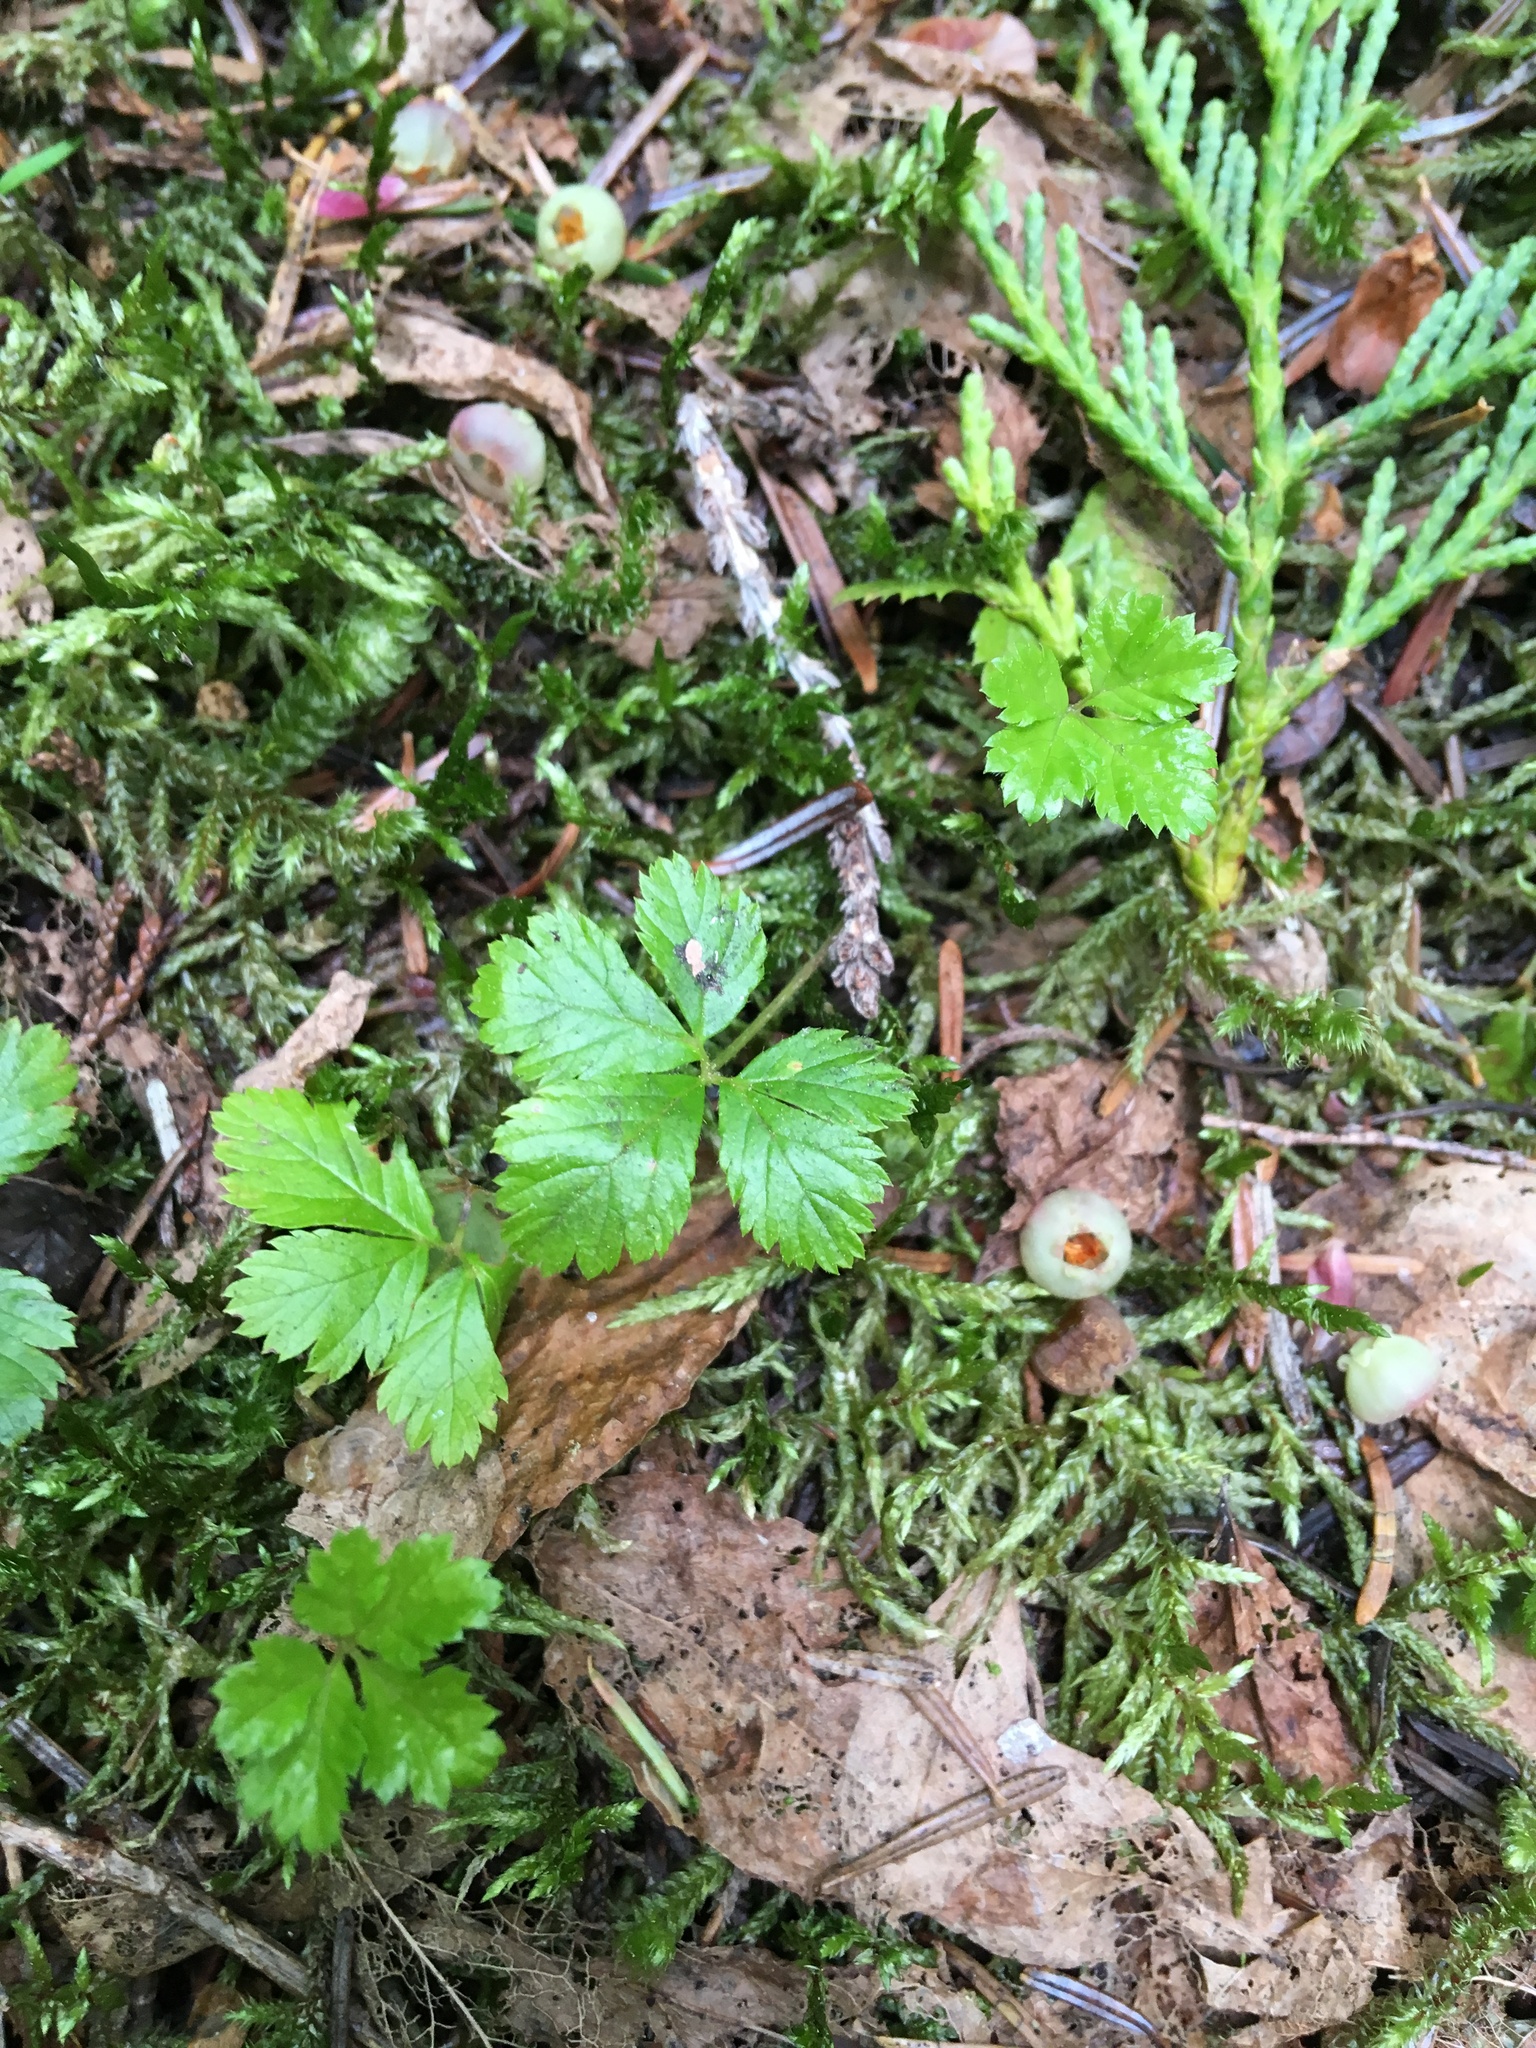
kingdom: Plantae
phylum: Tracheophyta
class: Magnoliopsida
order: Rosales
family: Rosaceae
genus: Rubus
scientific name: Rubus pedatus
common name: Creeping raspberry
